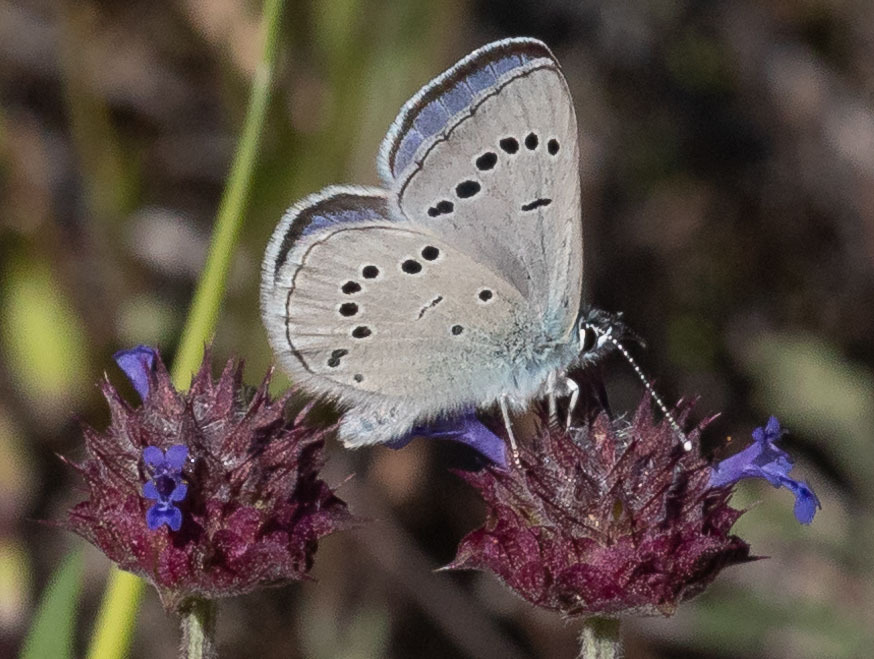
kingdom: Animalia
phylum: Arthropoda
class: Insecta
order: Lepidoptera
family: Lycaenidae
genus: Glaucopsyche
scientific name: Glaucopsyche lygdamus
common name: Silvery blue
